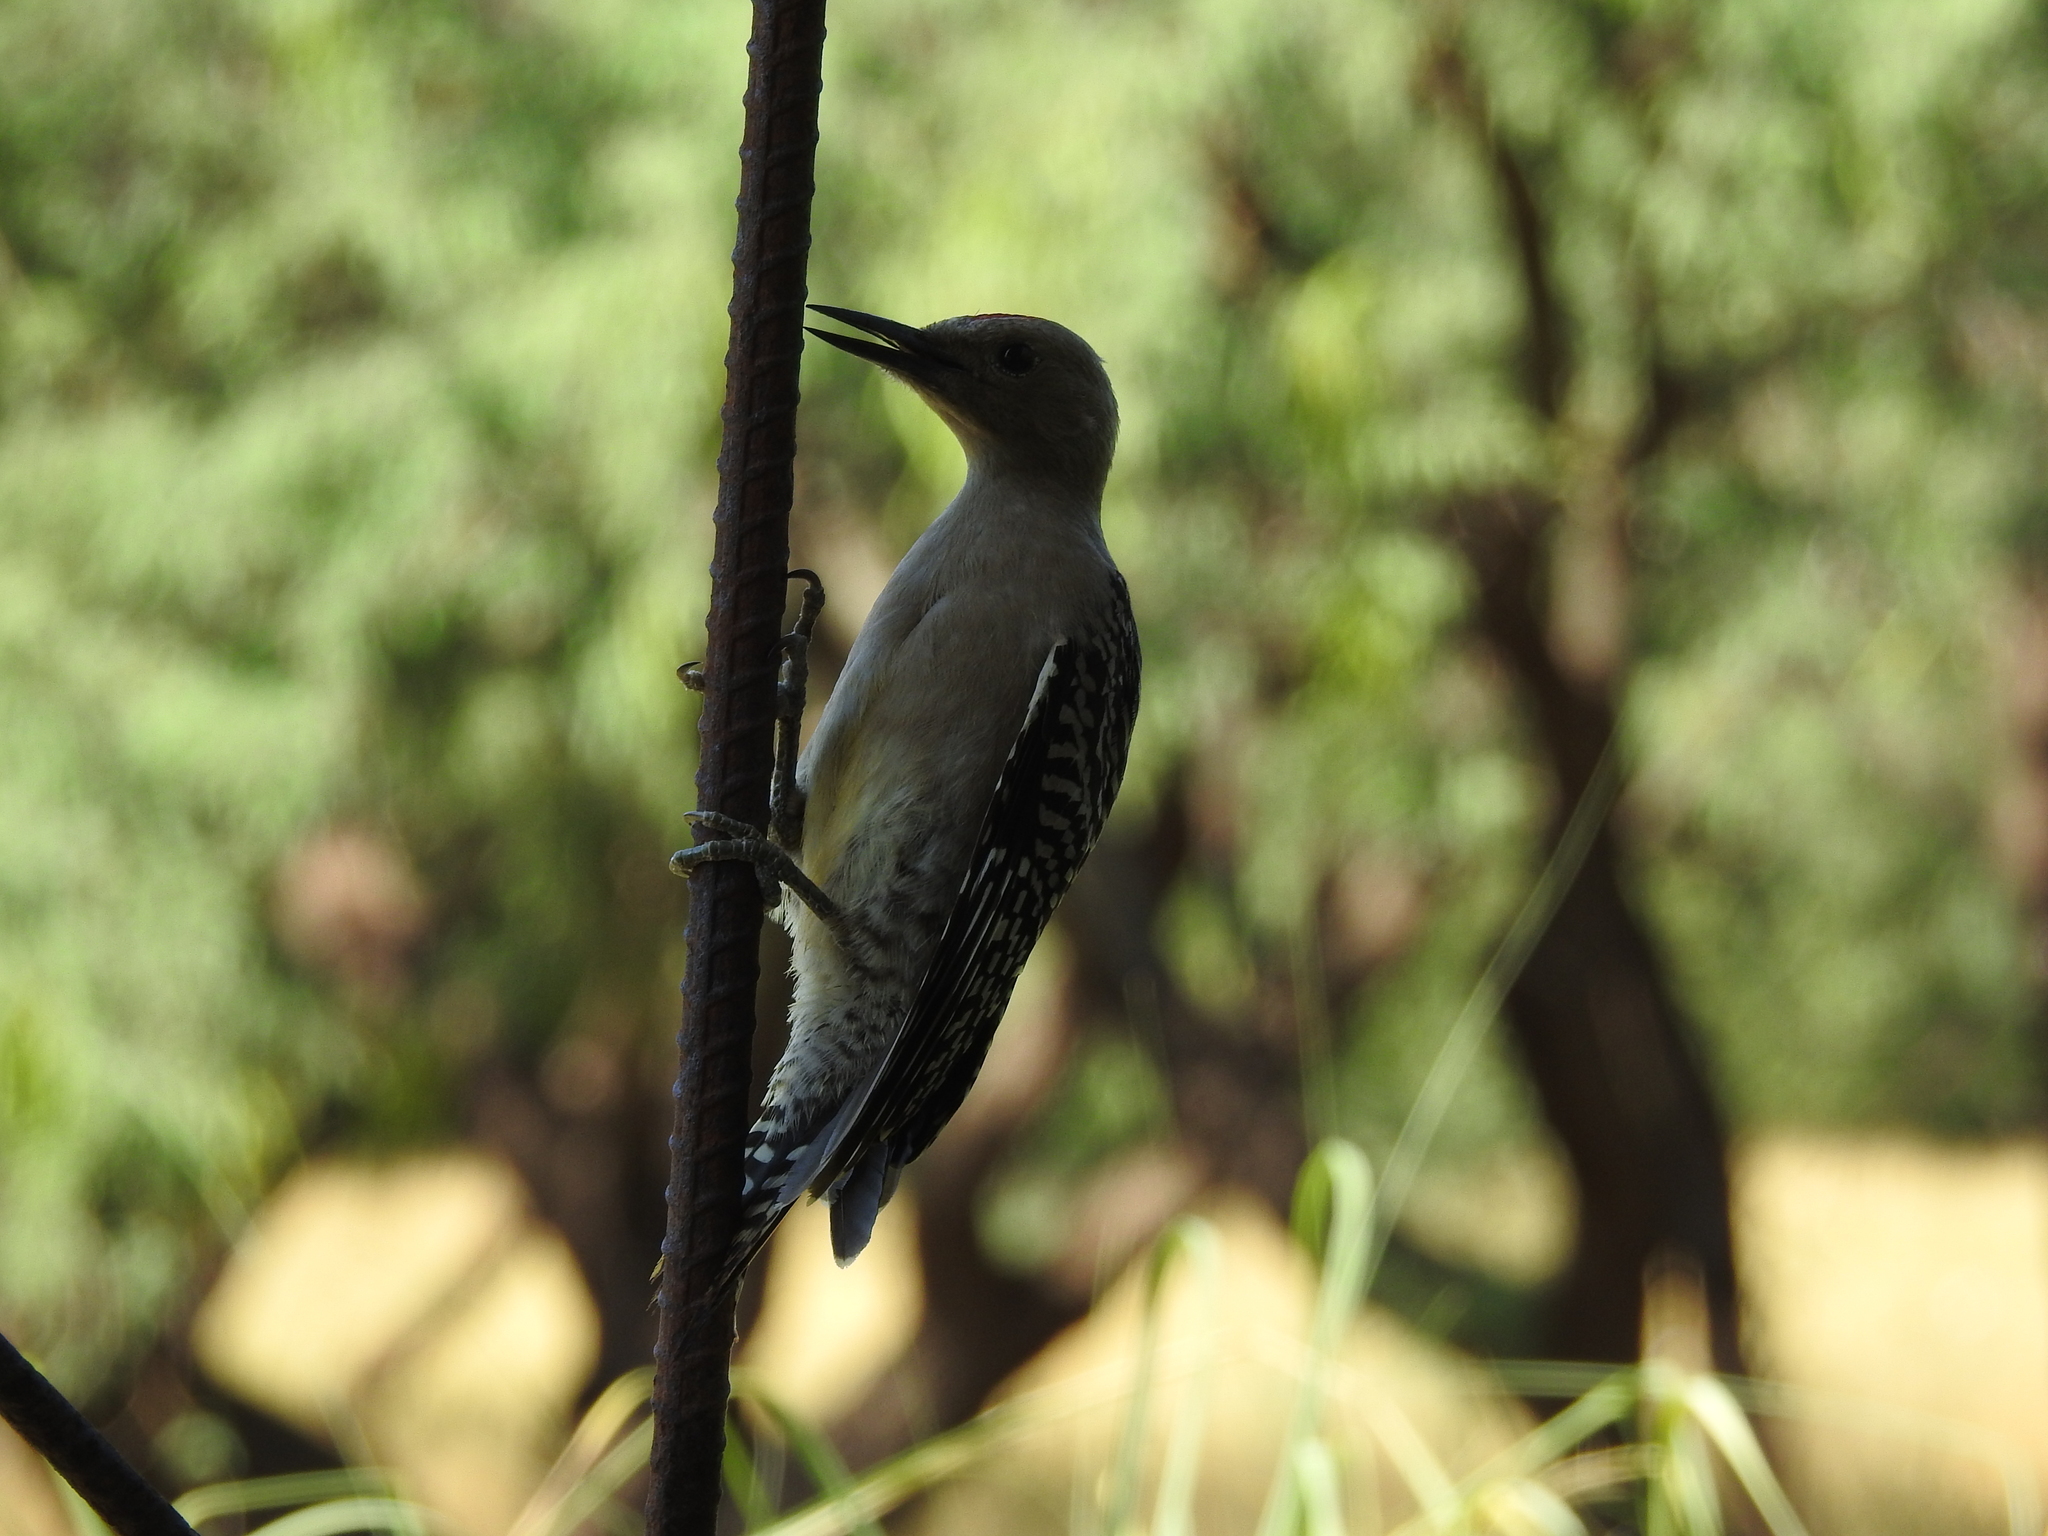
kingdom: Animalia
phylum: Chordata
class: Aves
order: Piciformes
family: Picidae
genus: Melanerpes
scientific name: Melanerpes uropygialis
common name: Gila woodpecker
